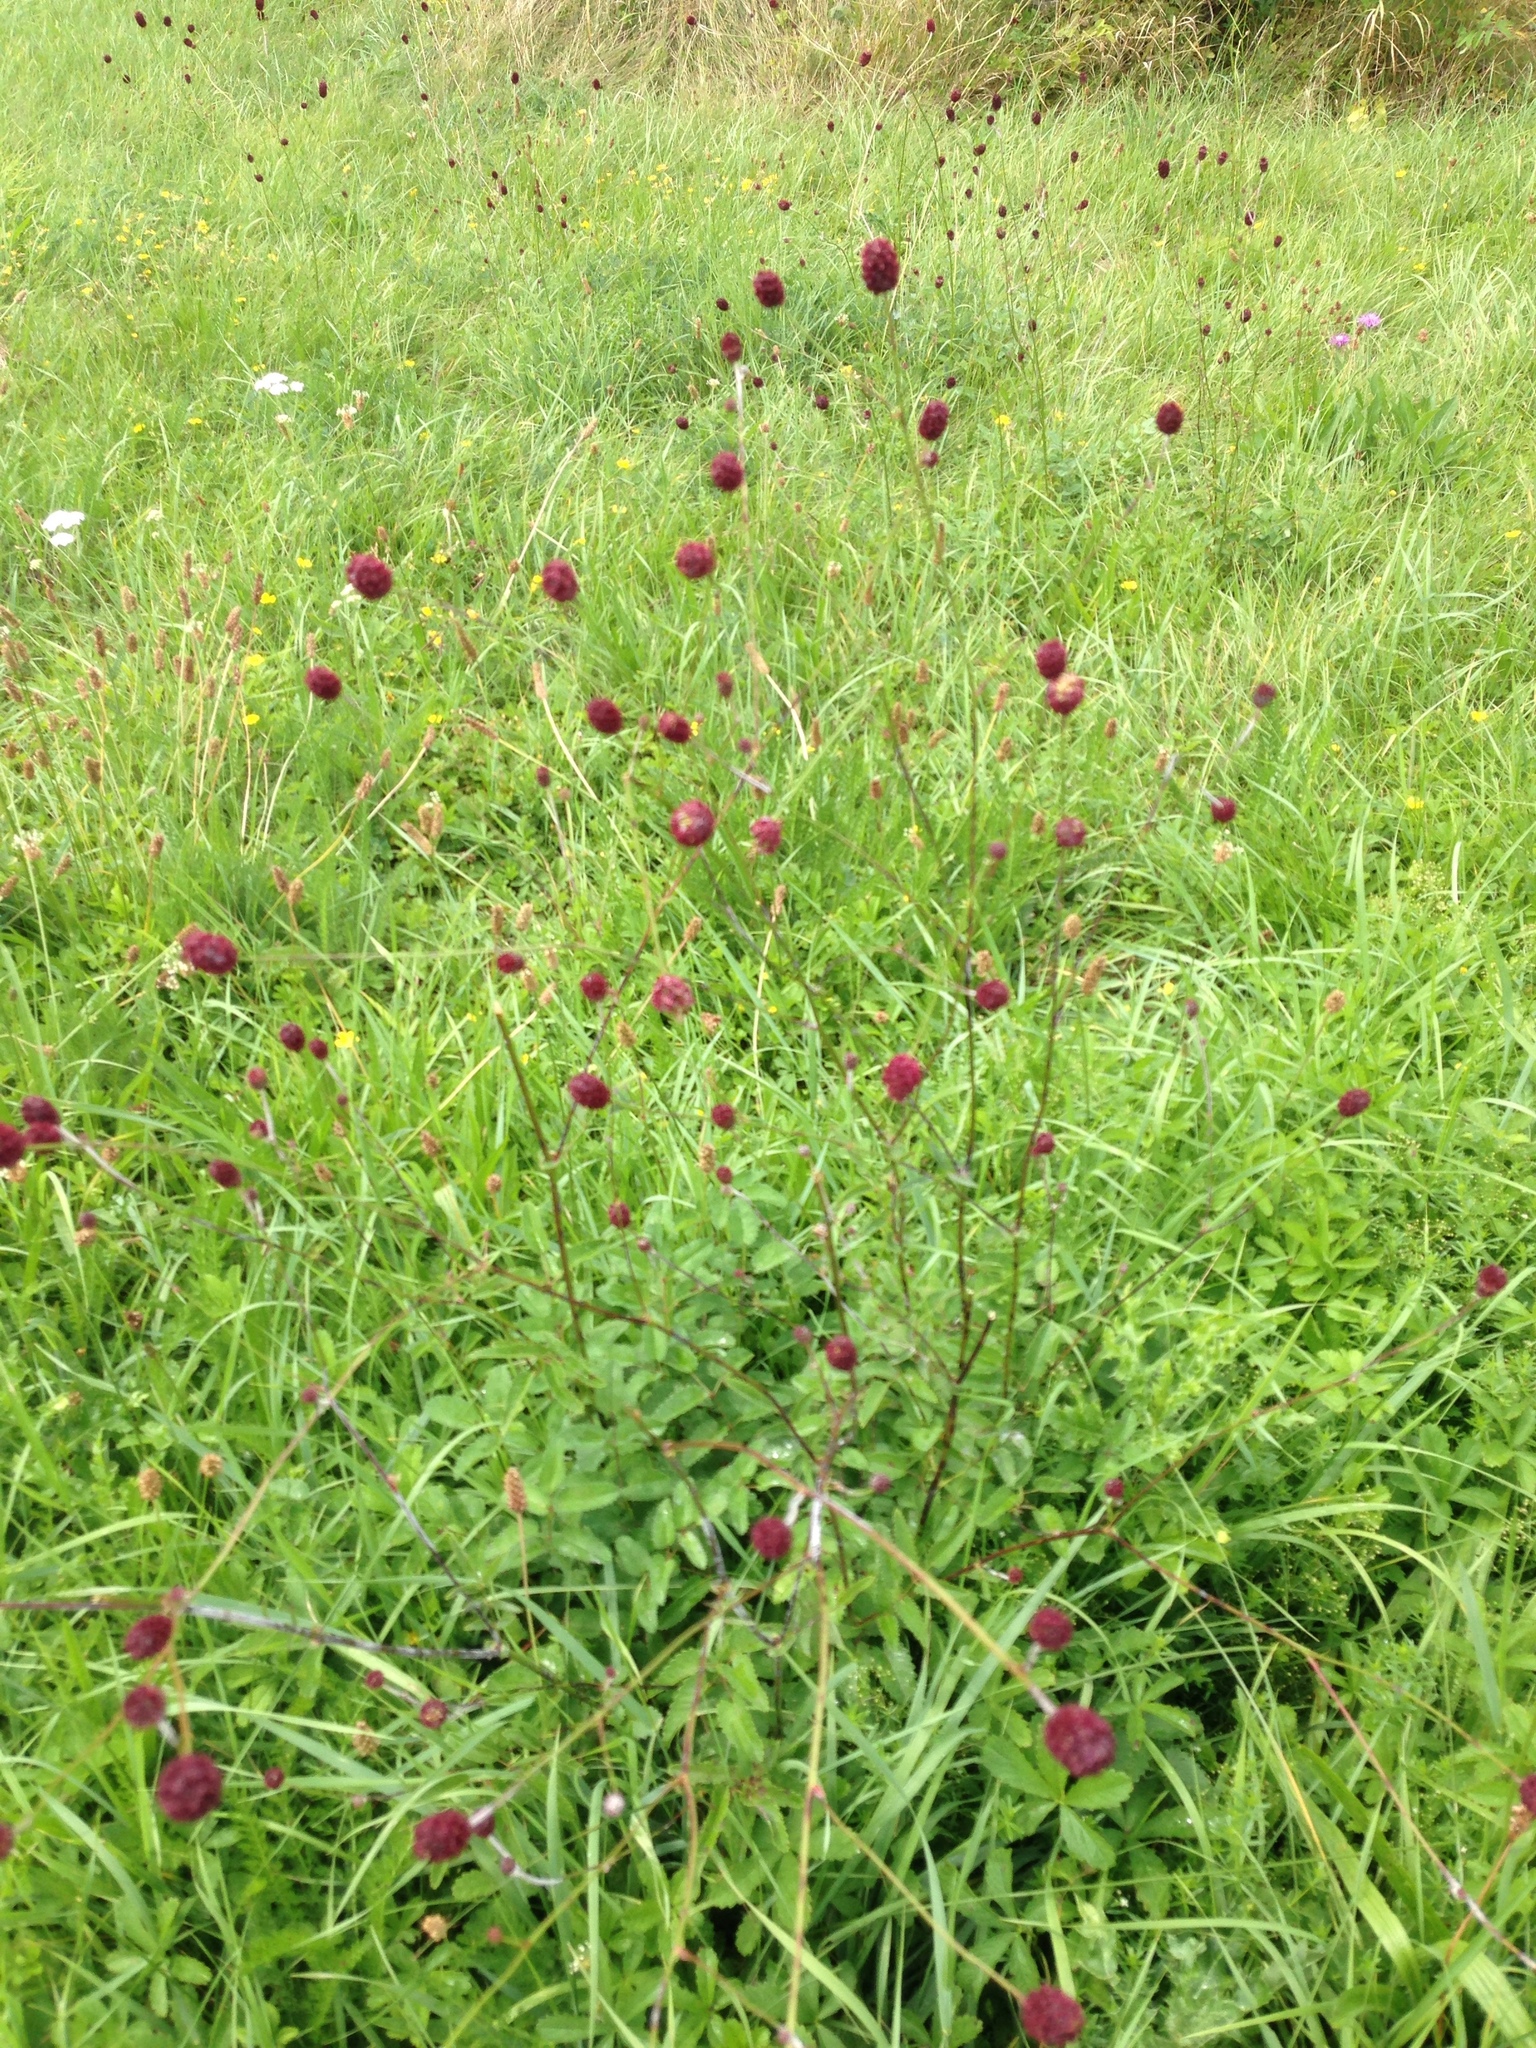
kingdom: Plantae
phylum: Tracheophyta
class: Magnoliopsida
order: Rosales
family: Rosaceae
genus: Sanguisorba
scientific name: Sanguisorba officinalis
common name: Great burnet
